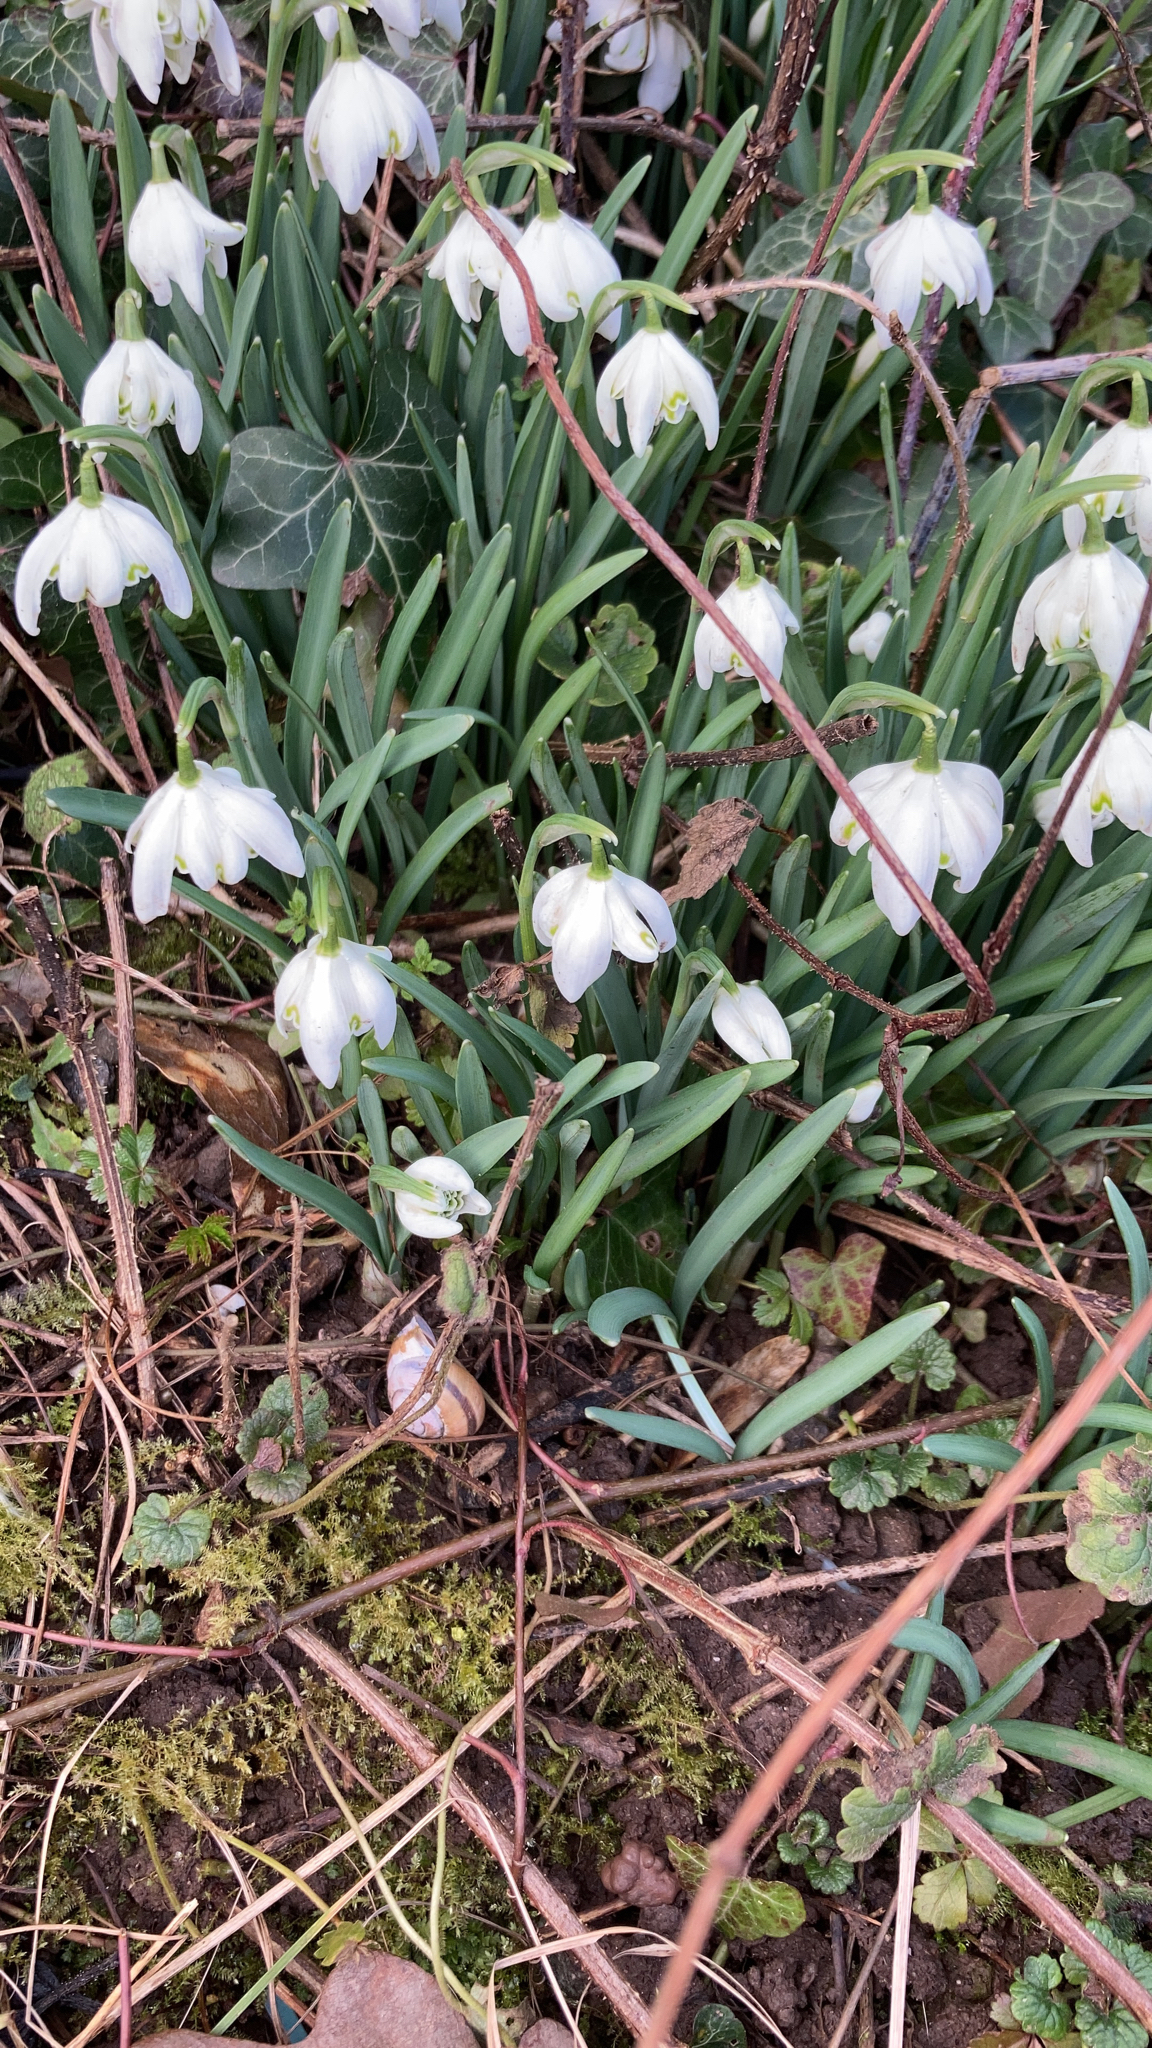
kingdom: Plantae
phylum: Tracheophyta
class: Liliopsida
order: Asparagales
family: Amaryllidaceae
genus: Galanthus
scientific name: Galanthus nivalis
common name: Snowdrop
